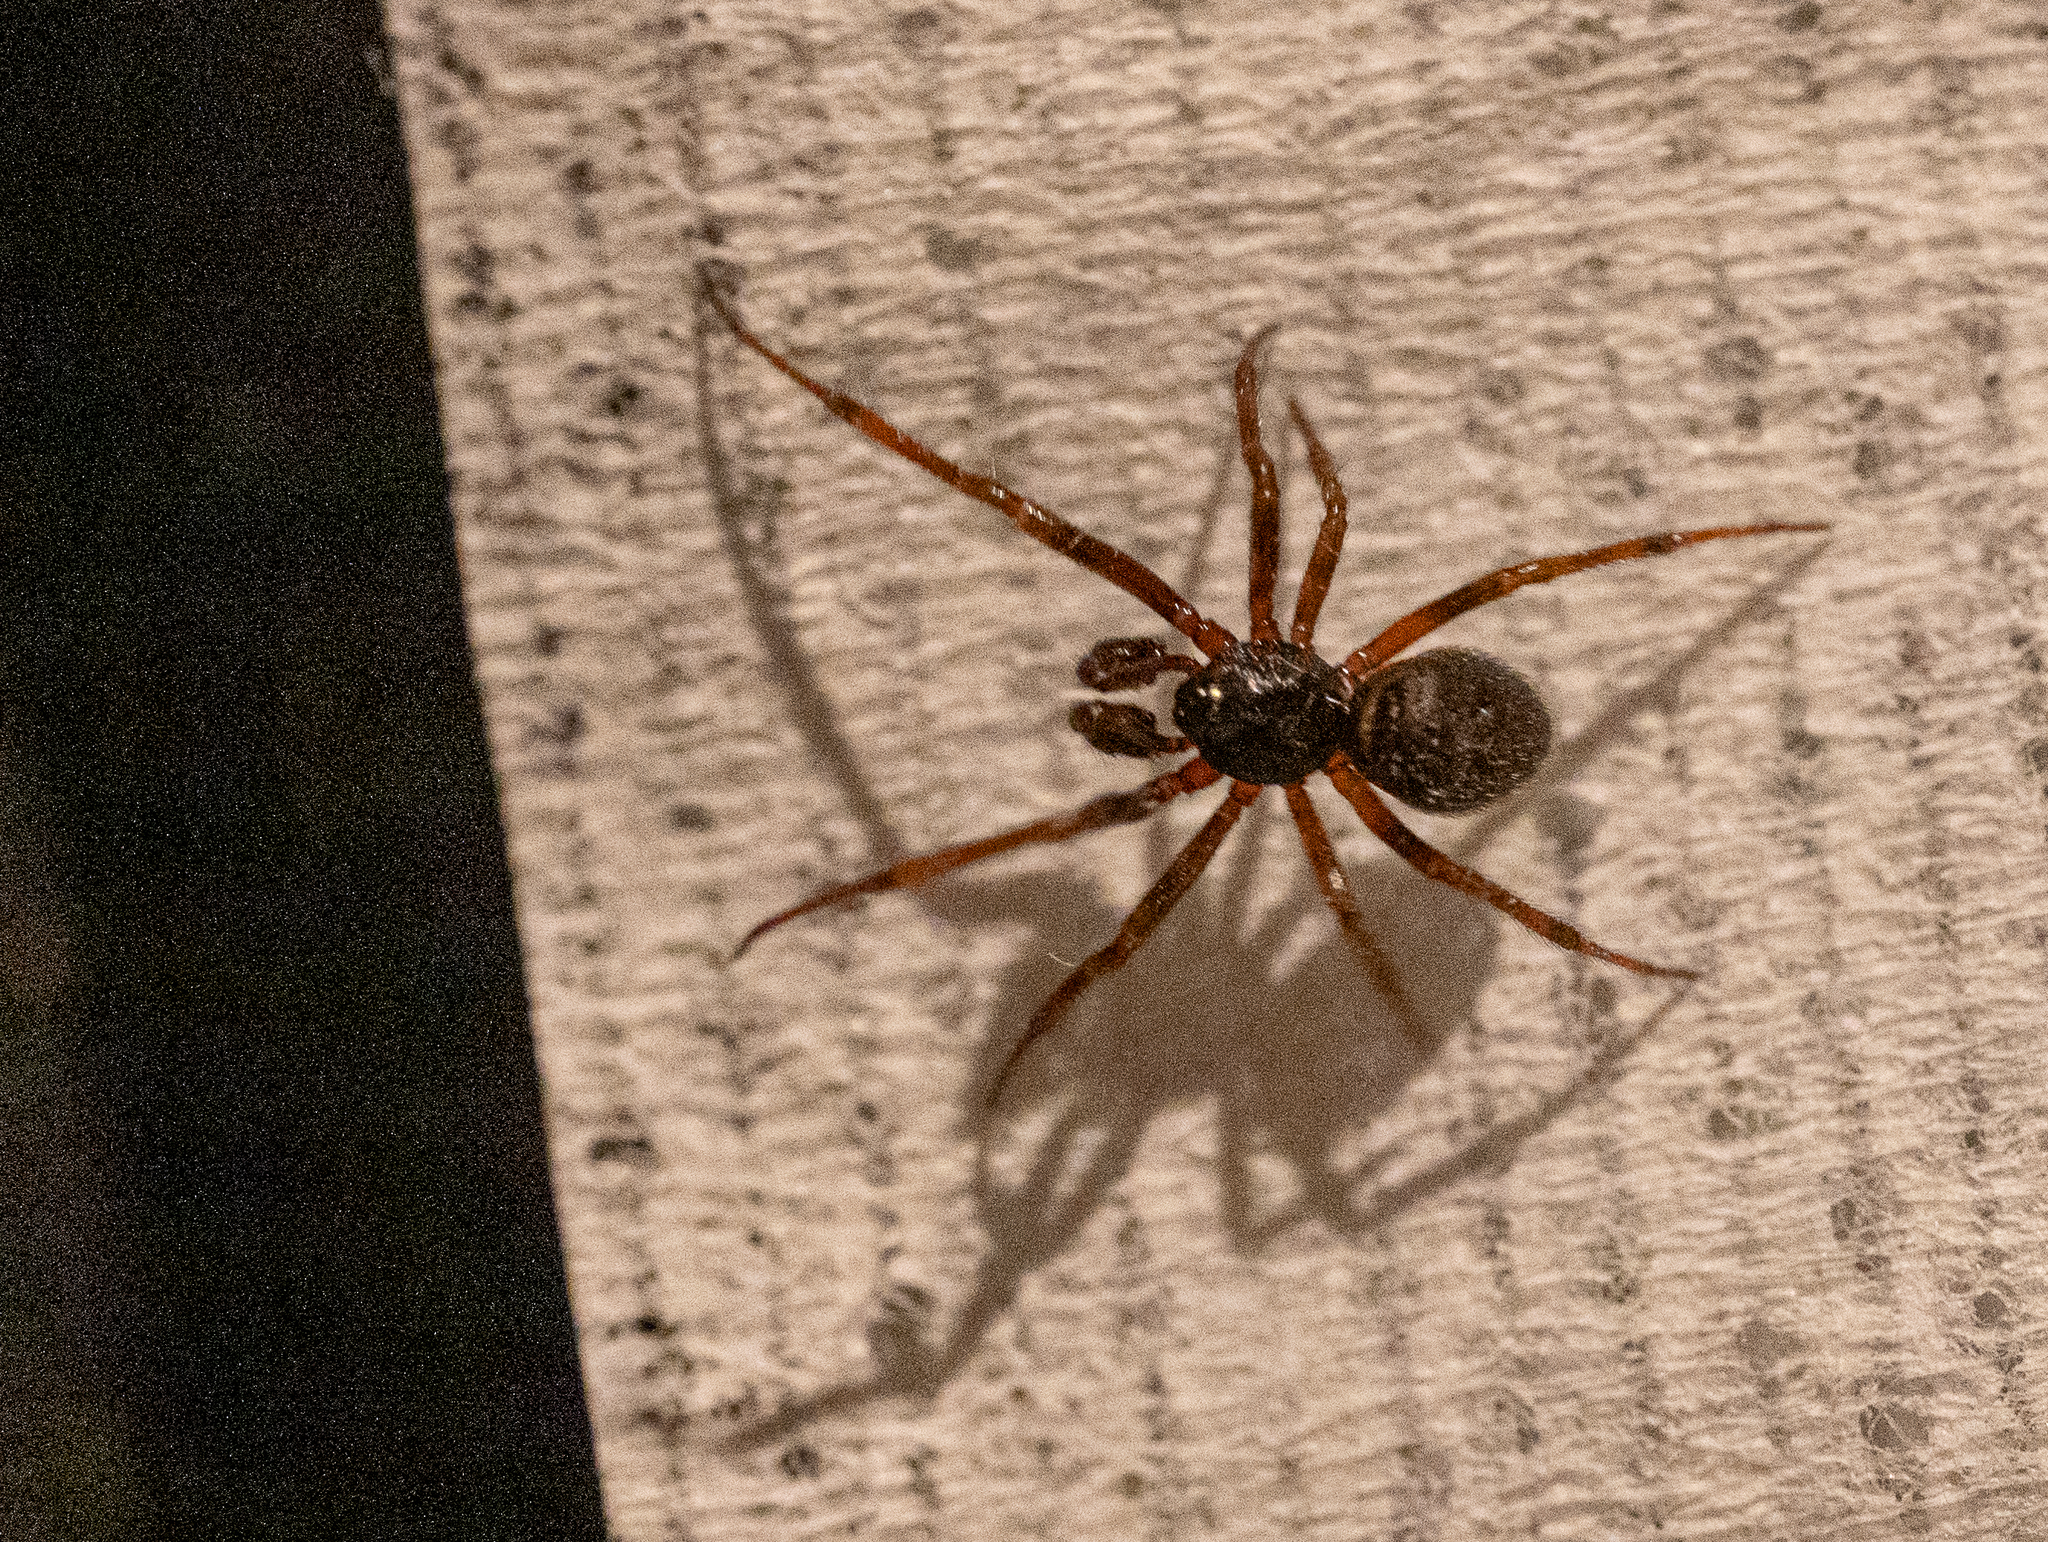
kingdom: Animalia
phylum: Arthropoda
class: Arachnida
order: Araneae
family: Theridiidae
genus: Steatoda
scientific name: Steatoda bipunctata
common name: False widow
